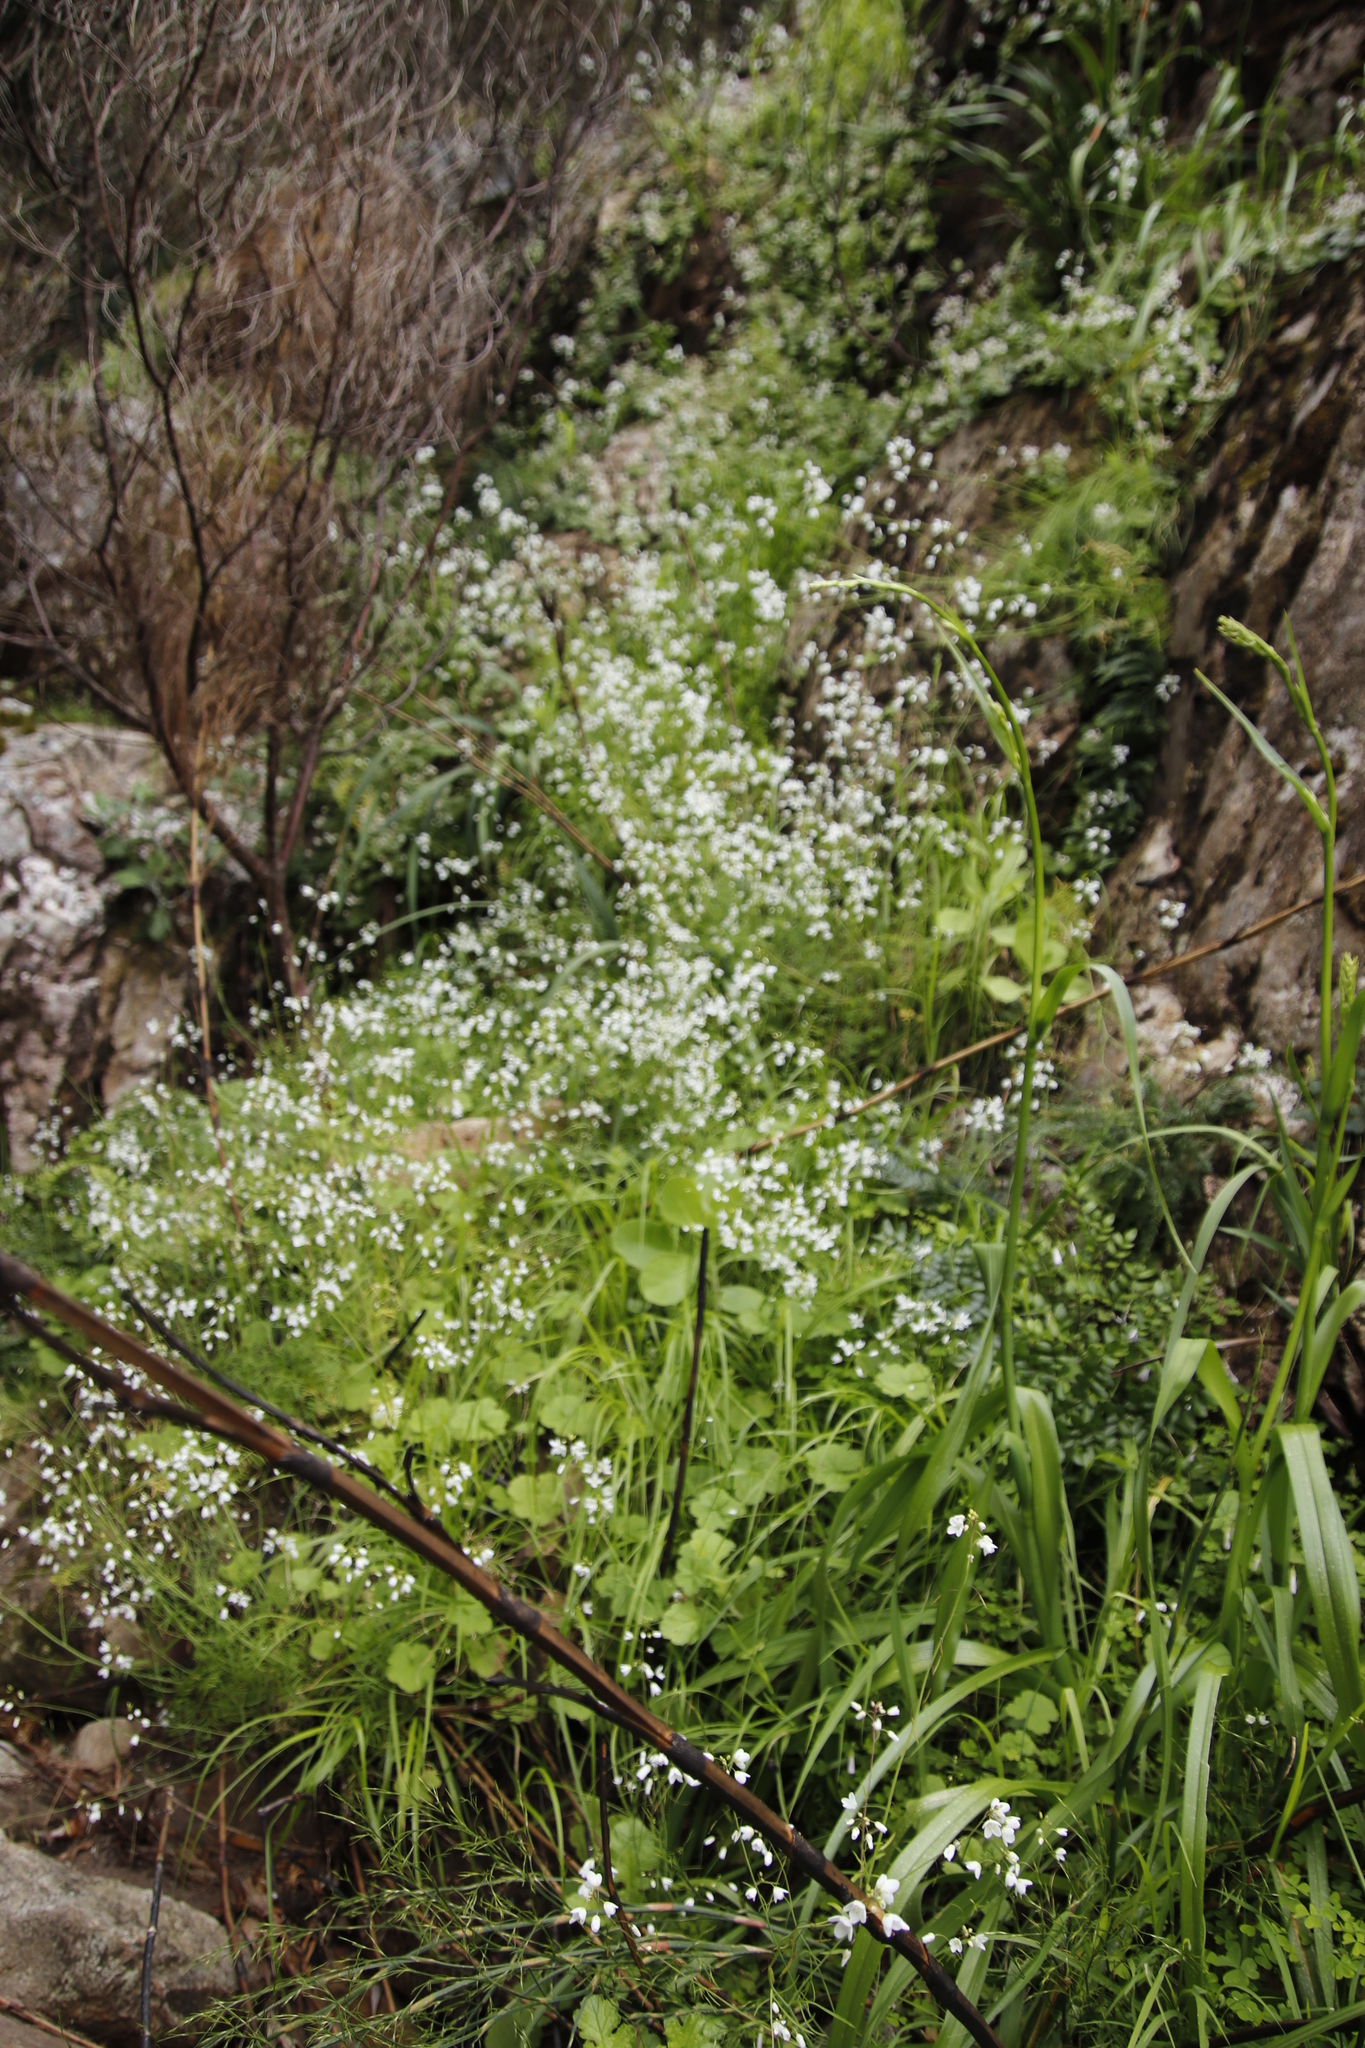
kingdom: Plantae
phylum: Tracheophyta
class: Magnoliopsida
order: Brassicales
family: Brassicaceae
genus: Heliophila
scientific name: Heliophila meyeri
